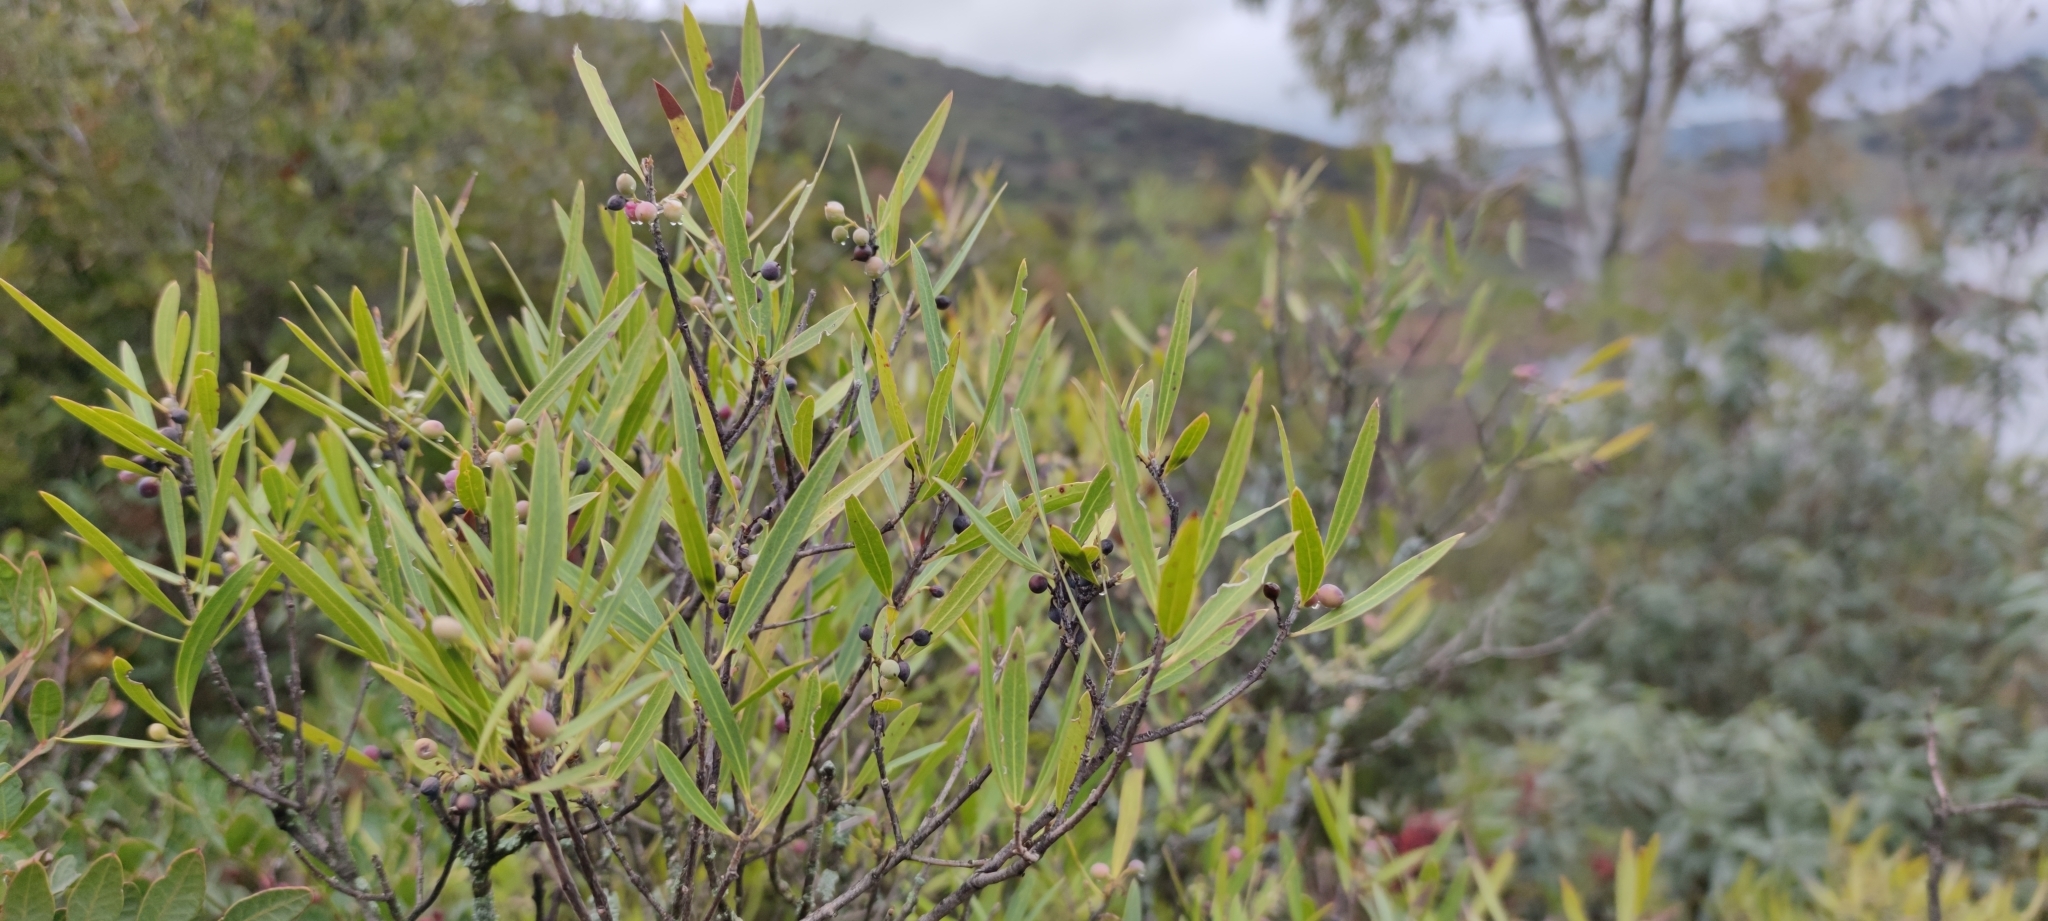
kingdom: Plantae
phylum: Tracheophyta
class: Magnoliopsida
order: Lamiales
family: Oleaceae
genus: Phillyrea
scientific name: Phillyrea angustifolia
